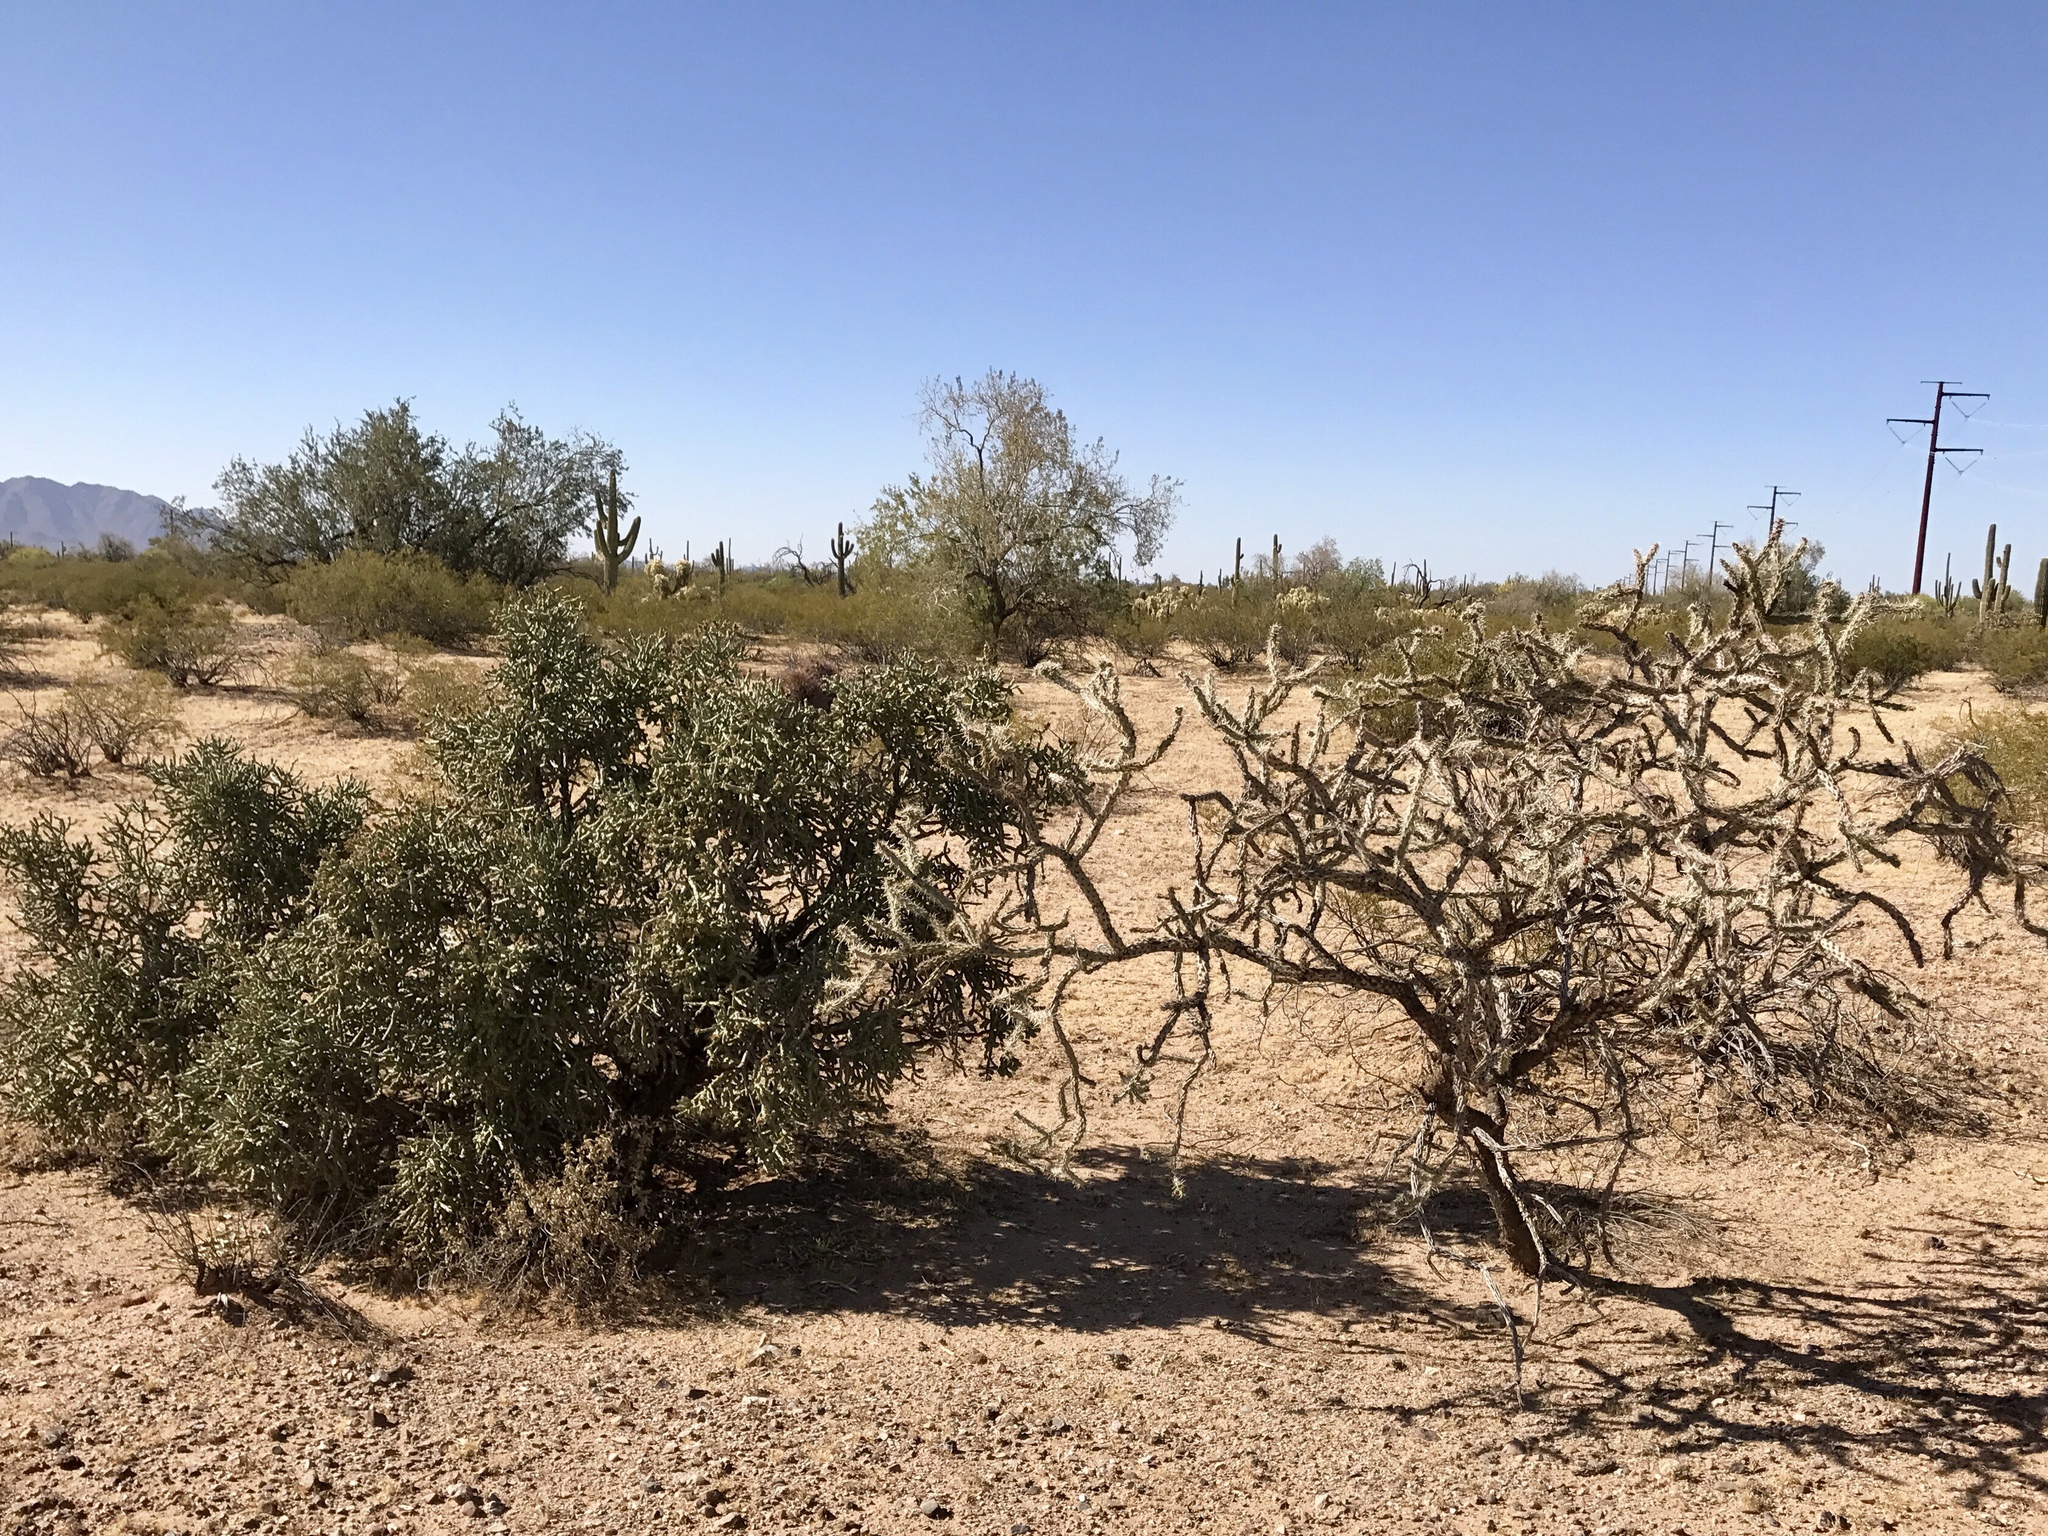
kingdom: Plantae
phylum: Tracheophyta
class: Magnoliopsida
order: Caryophyllales
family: Cactaceae
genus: Cylindropuntia
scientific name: Cylindropuntia acanthocarpa
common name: Buckhorn cholla
